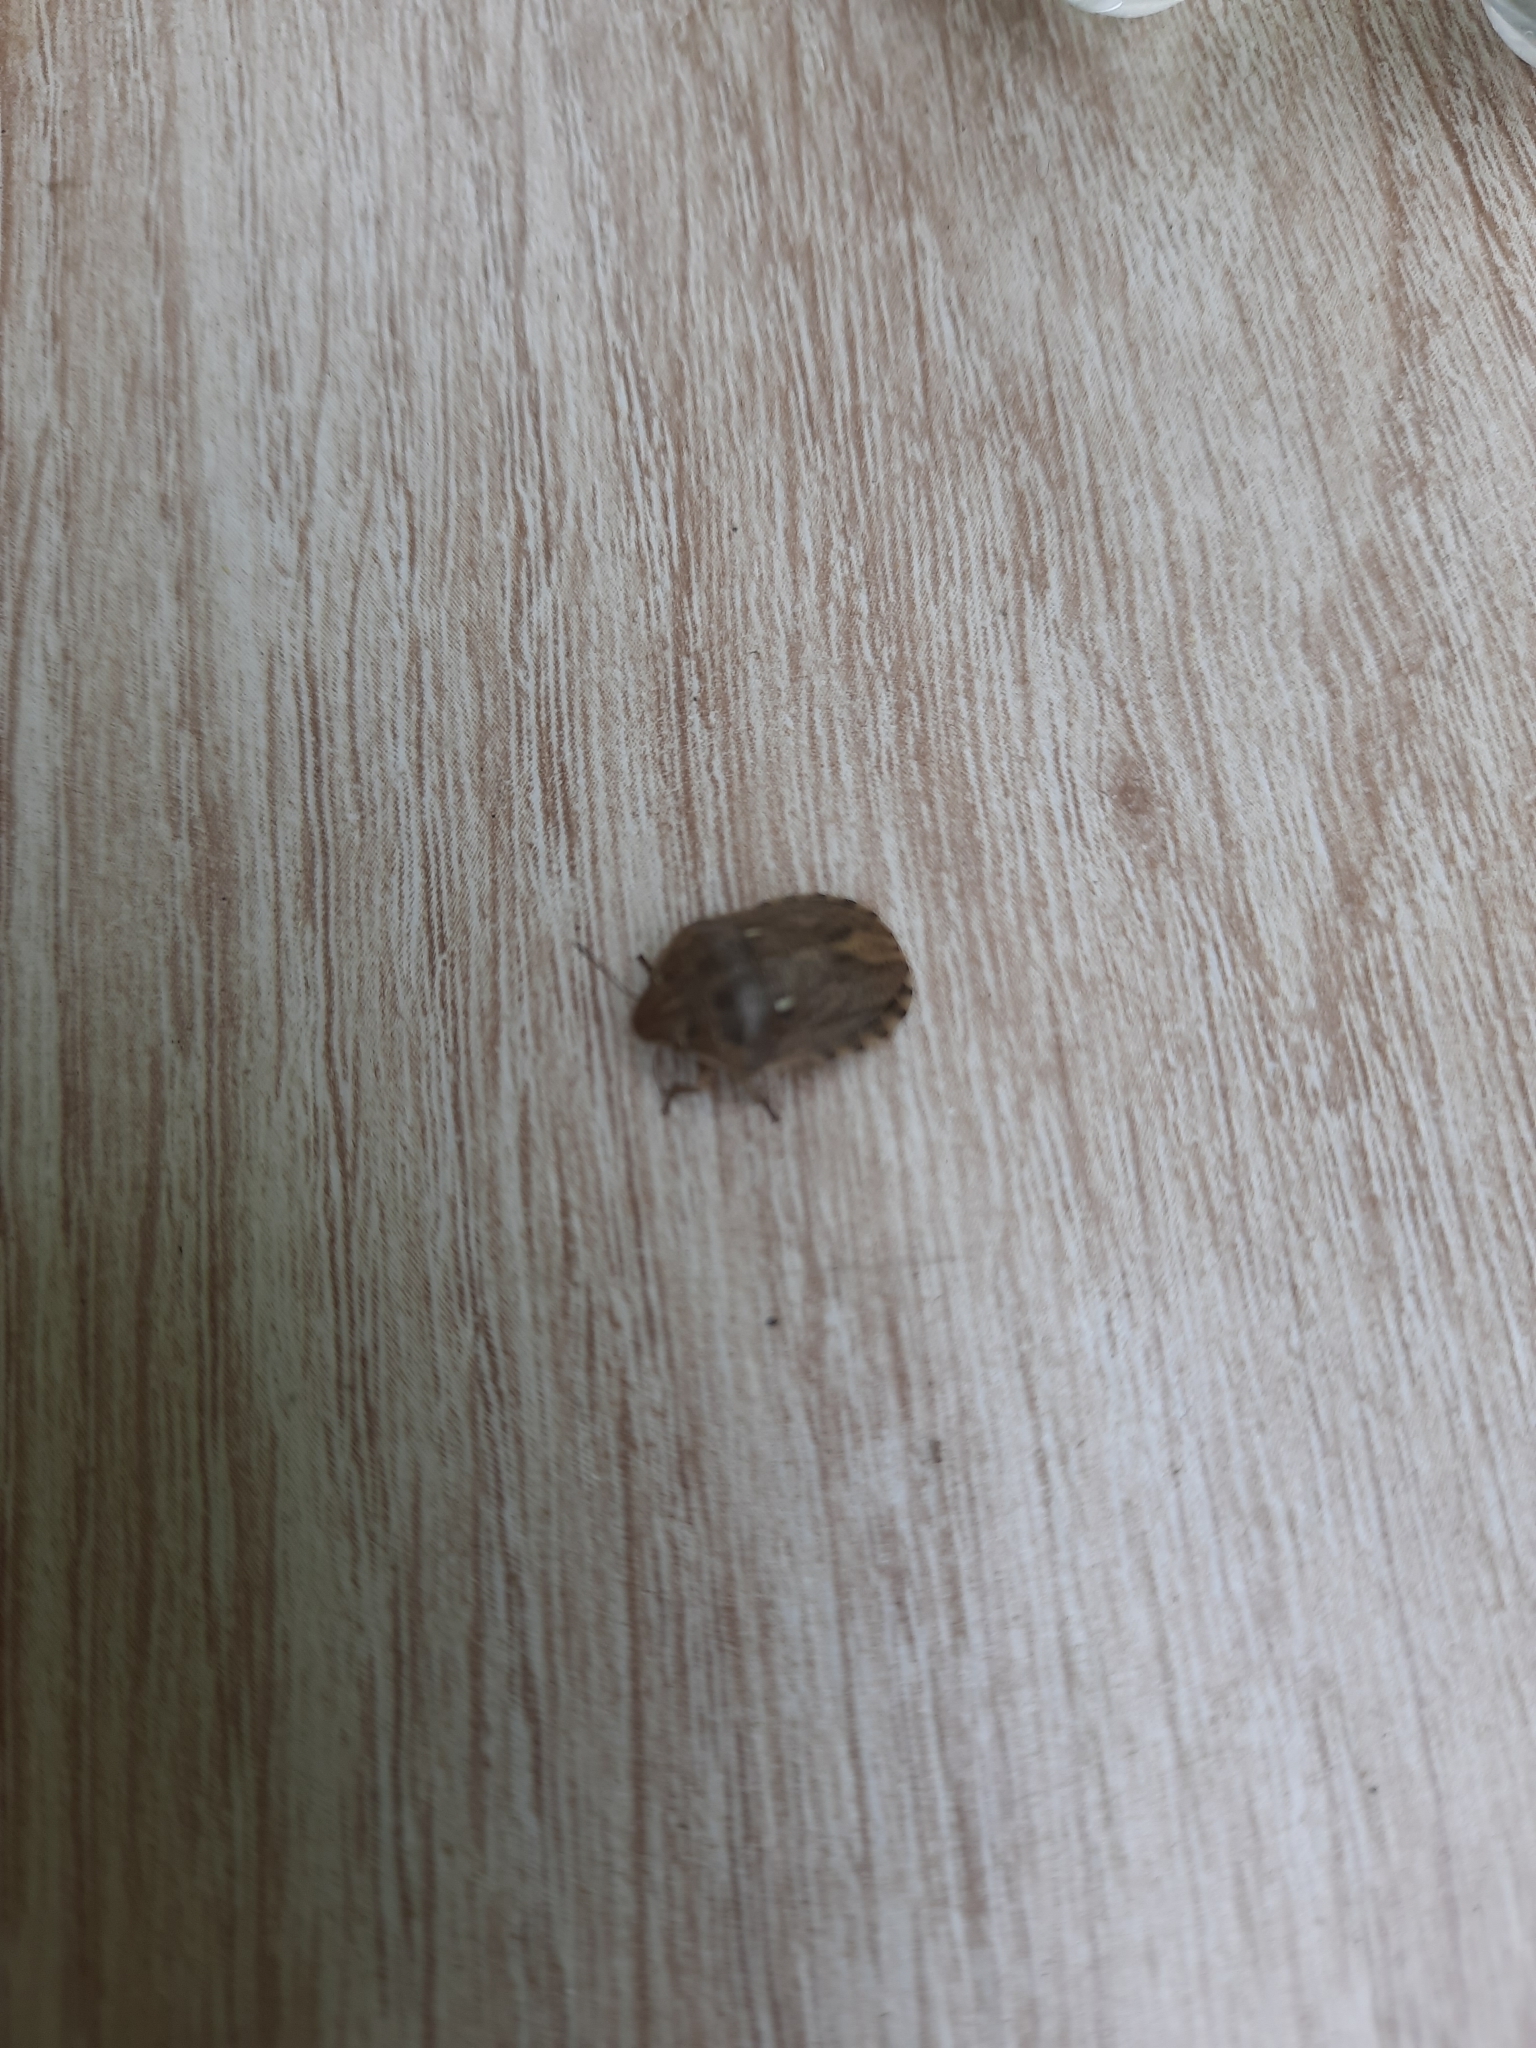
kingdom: Animalia
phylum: Arthropoda
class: Insecta
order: Hemiptera
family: Scutelleridae
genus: Eurygaster
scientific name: Eurygaster maura
